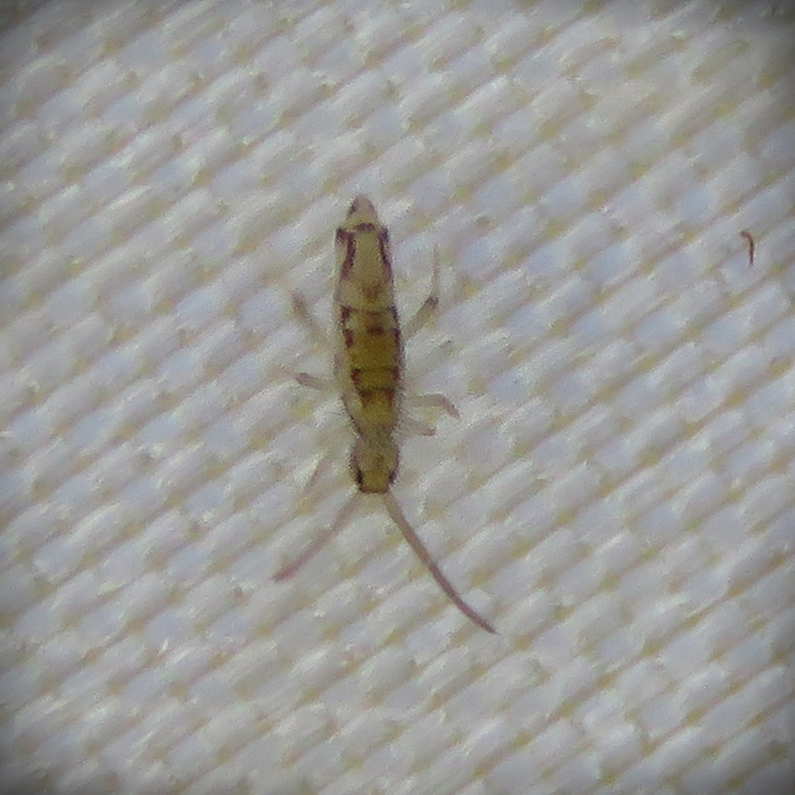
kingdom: Animalia
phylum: Arthropoda
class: Collembola
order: Entomobryomorpha
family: Entomobryidae
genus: Entomobrya
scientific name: Entomobrya intermedia
